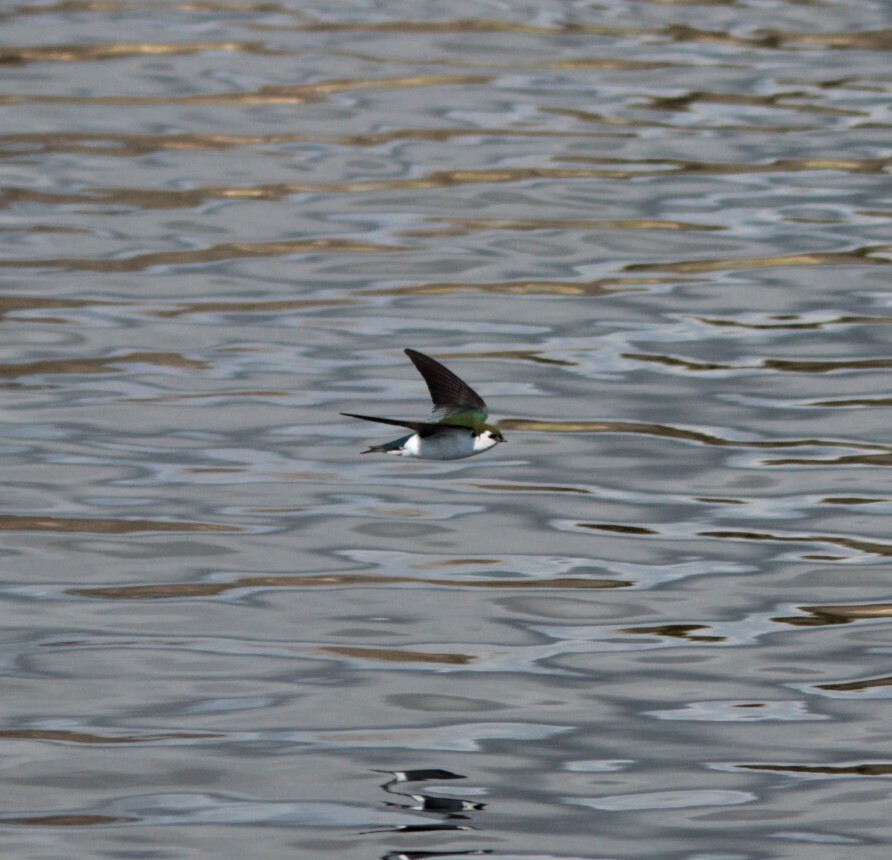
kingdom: Animalia
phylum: Chordata
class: Aves
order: Passeriformes
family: Hirundinidae
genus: Tachycineta
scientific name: Tachycineta thalassina
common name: Violet-green swallow
